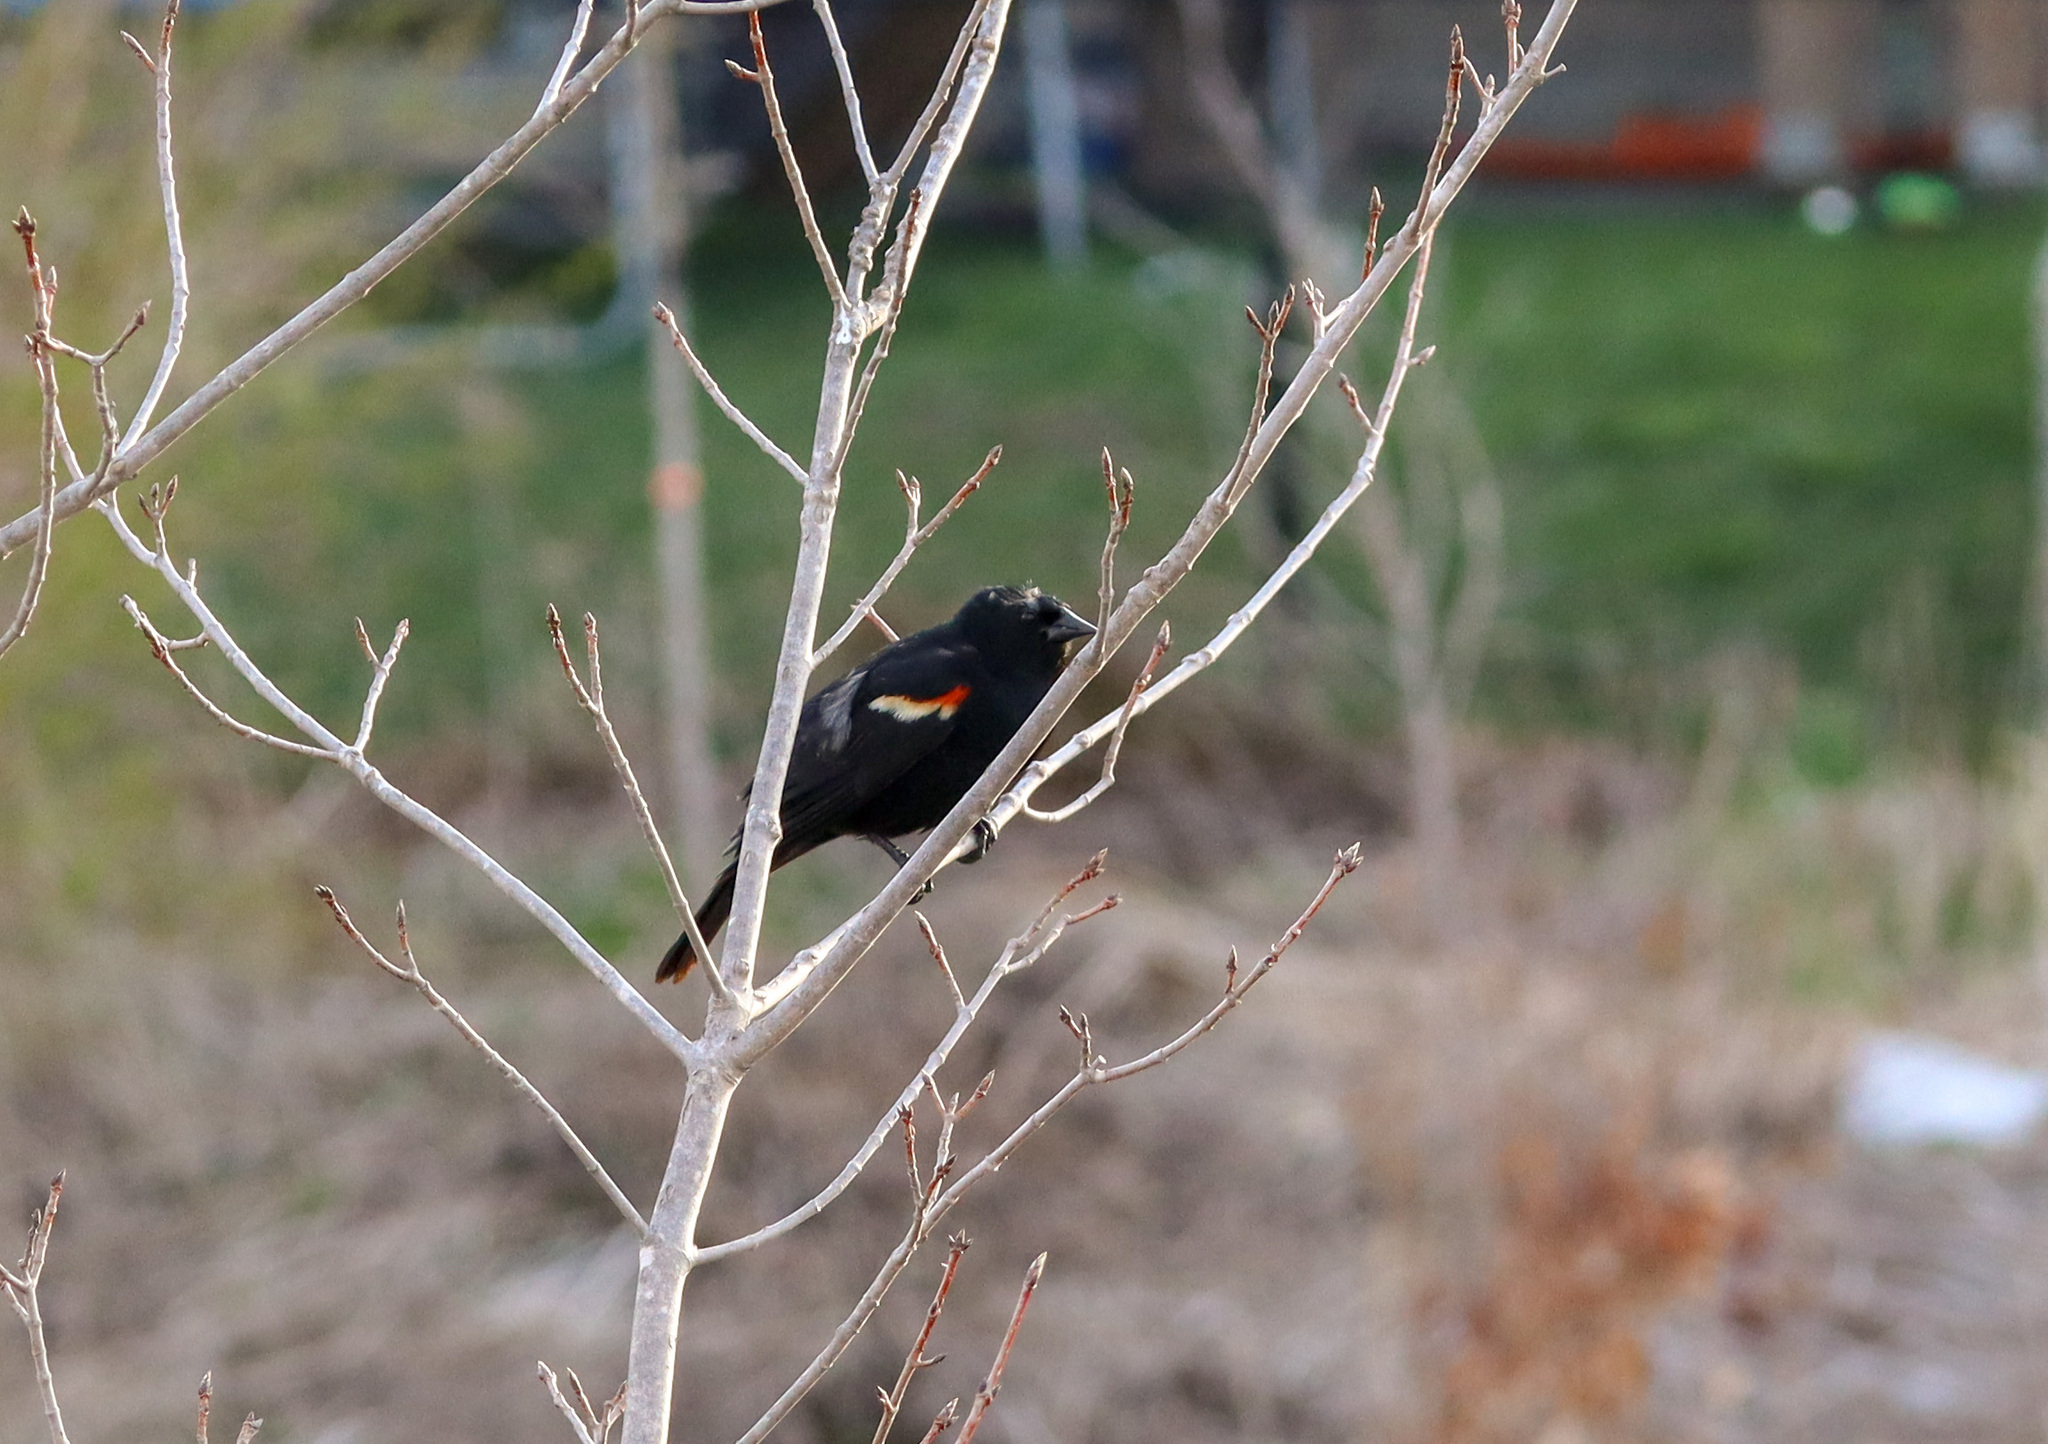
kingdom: Animalia
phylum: Chordata
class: Aves
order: Passeriformes
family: Icteridae
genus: Agelaius
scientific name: Agelaius phoeniceus
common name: Red-winged blackbird
